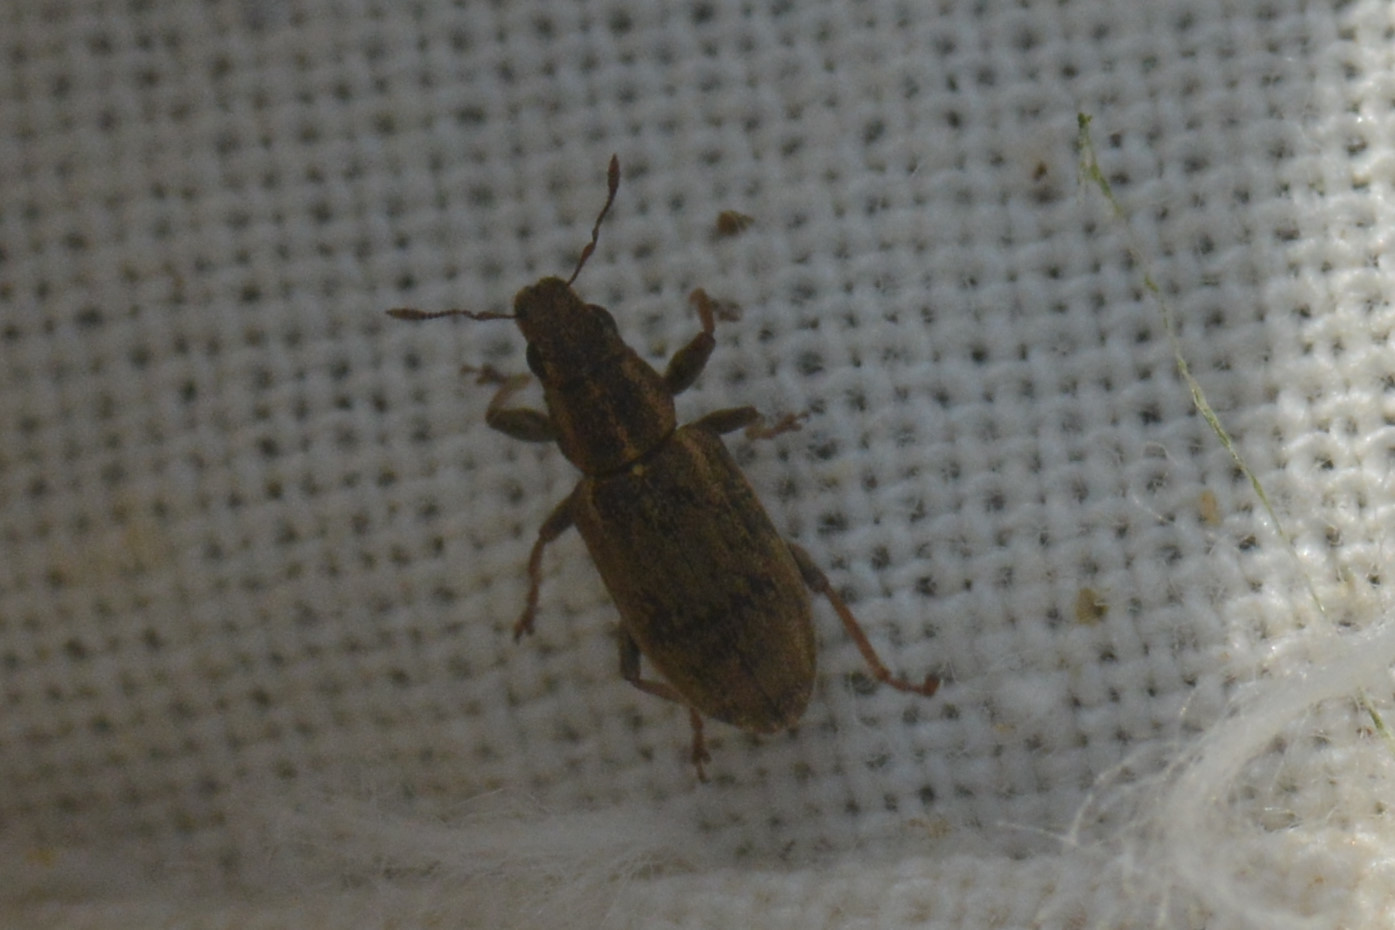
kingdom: Animalia
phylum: Arthropoda
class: Insecta
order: Coleoptera
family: Curculionidae
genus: Sitona
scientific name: Sitona lineatus
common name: Weevil
